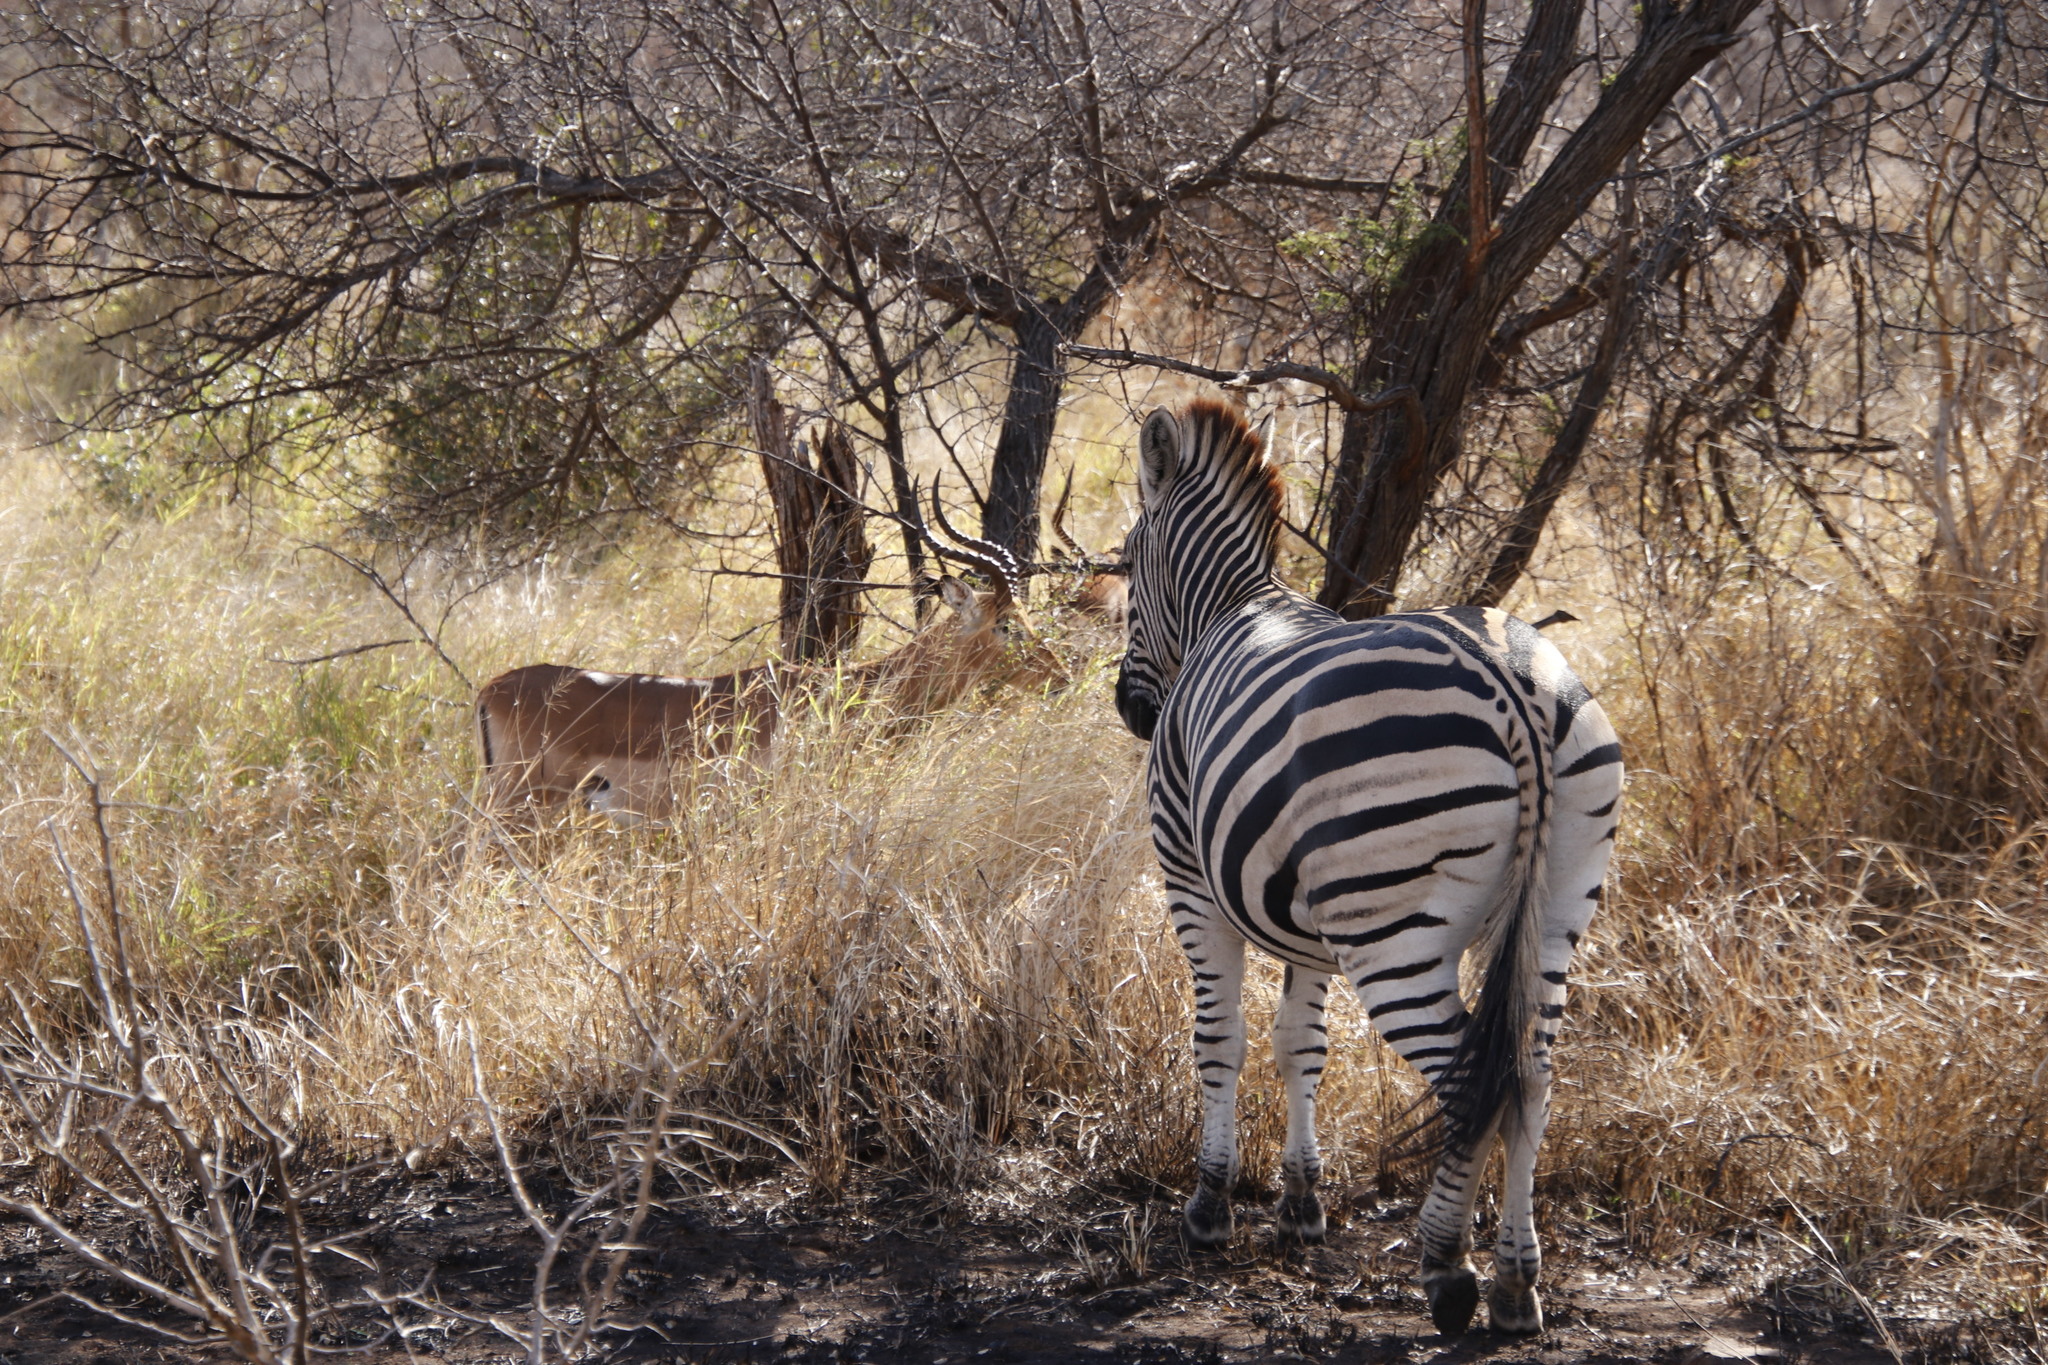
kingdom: Animalia
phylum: Chordata
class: Mammalia
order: Perissodactyla
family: Equidae
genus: Equus
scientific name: Equus quagga
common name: Plains zebra
